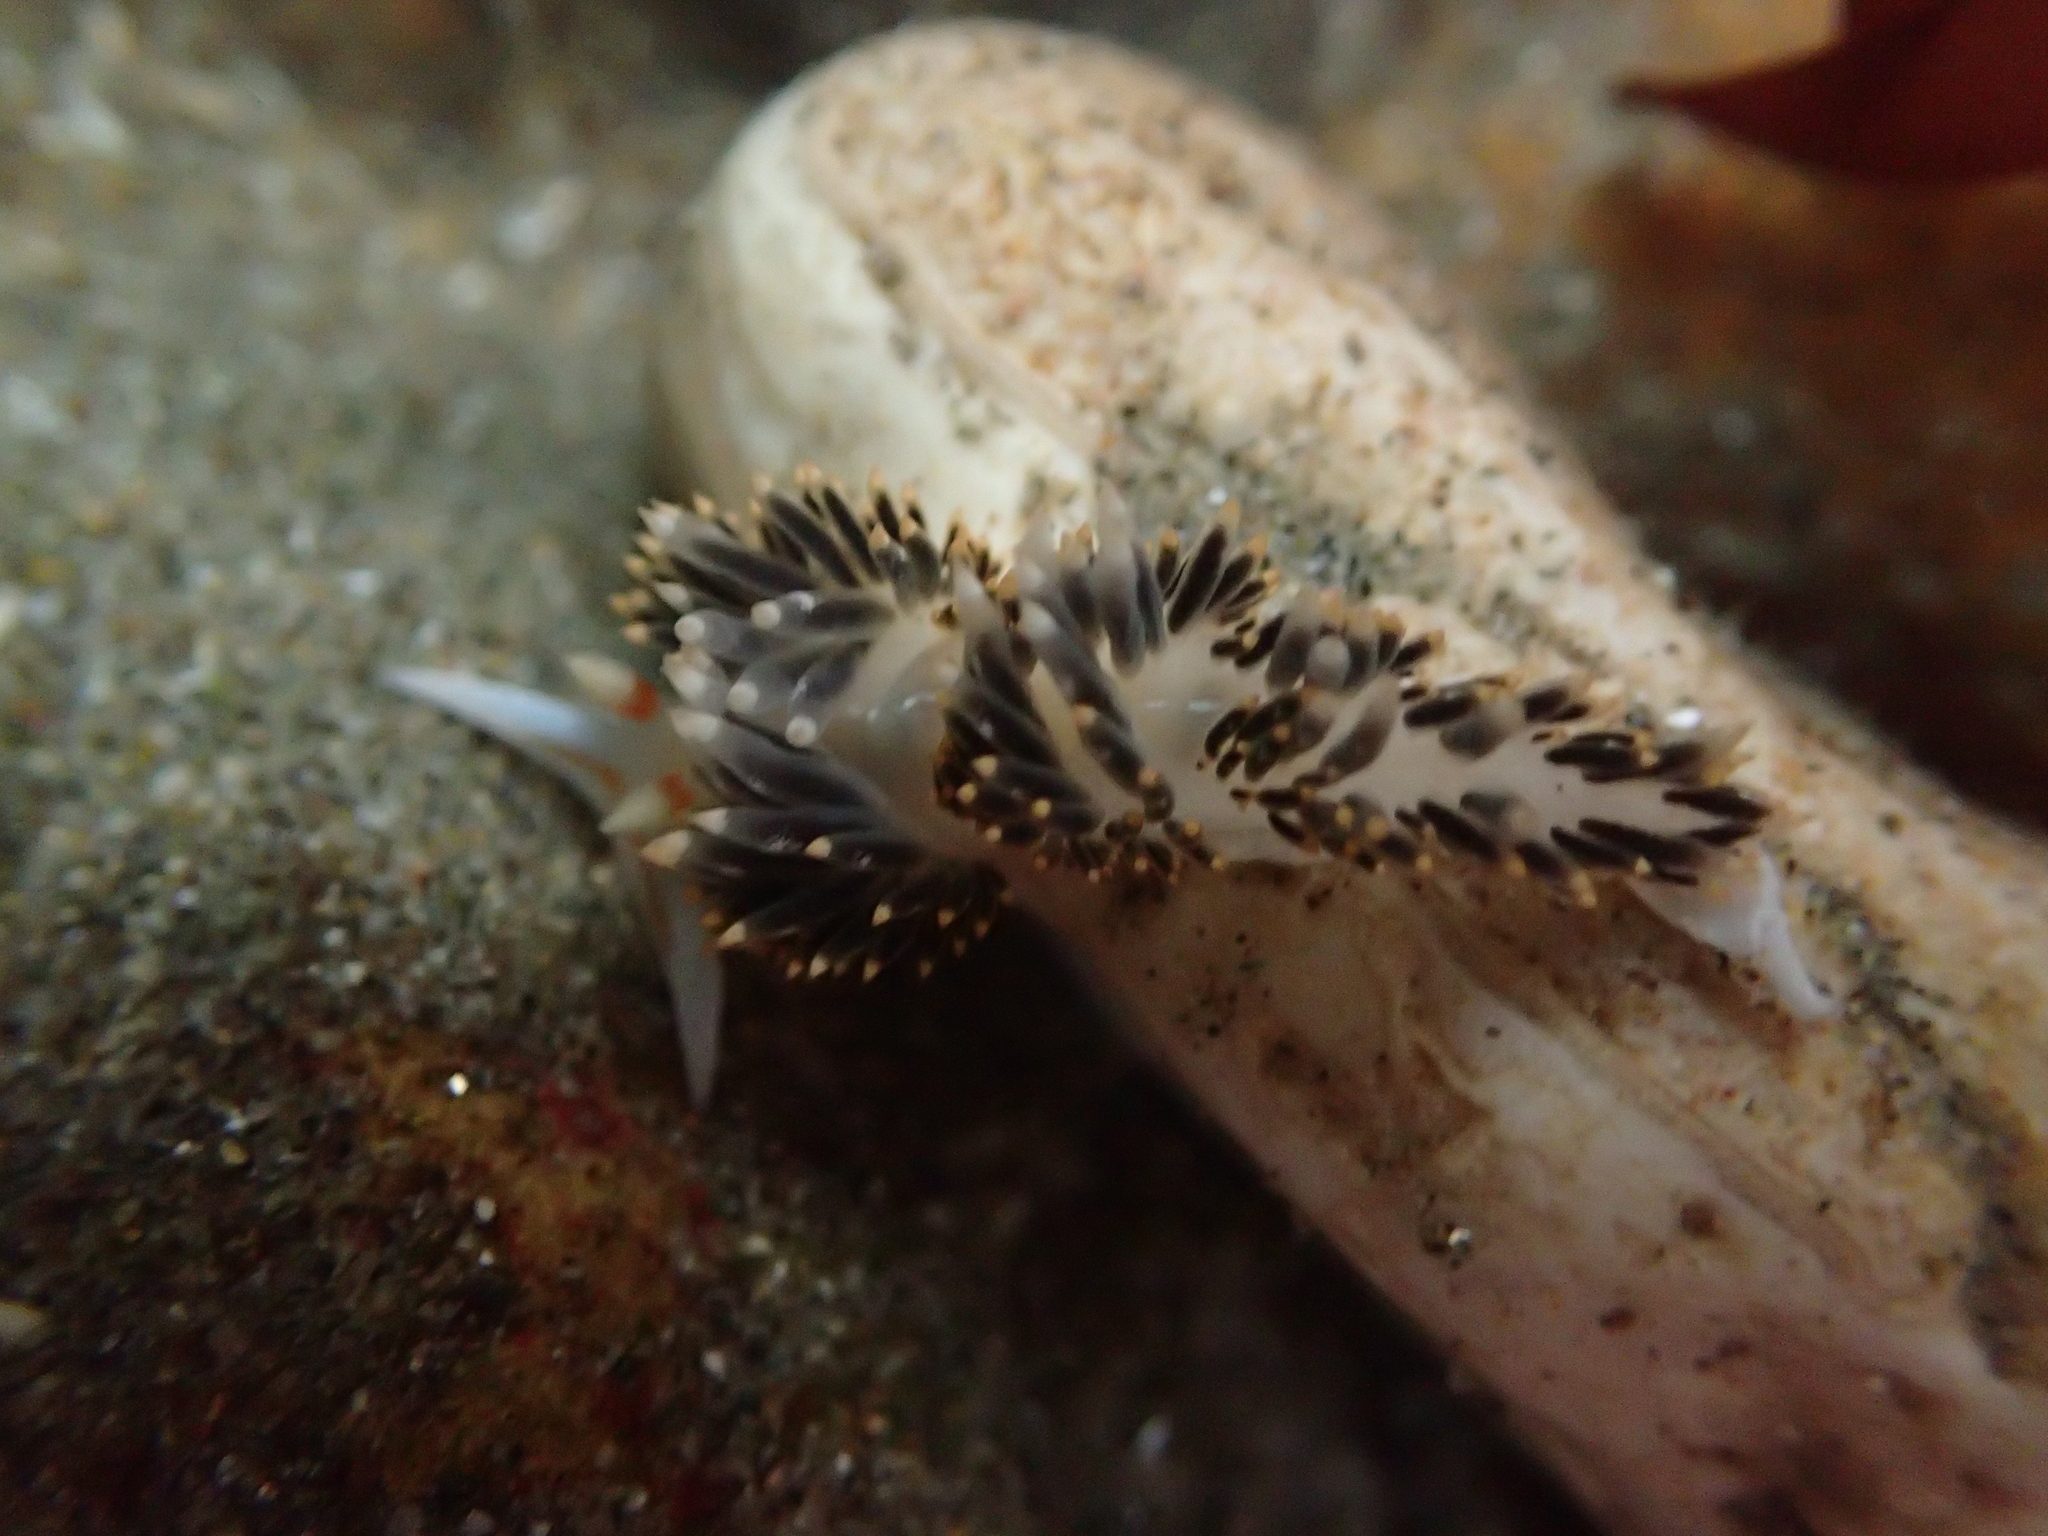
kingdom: Animalia
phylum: Mollusca
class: Gastropoda
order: Nudibranchia
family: Facelinidae
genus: Phidiana
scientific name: Phidiana hiltoni
